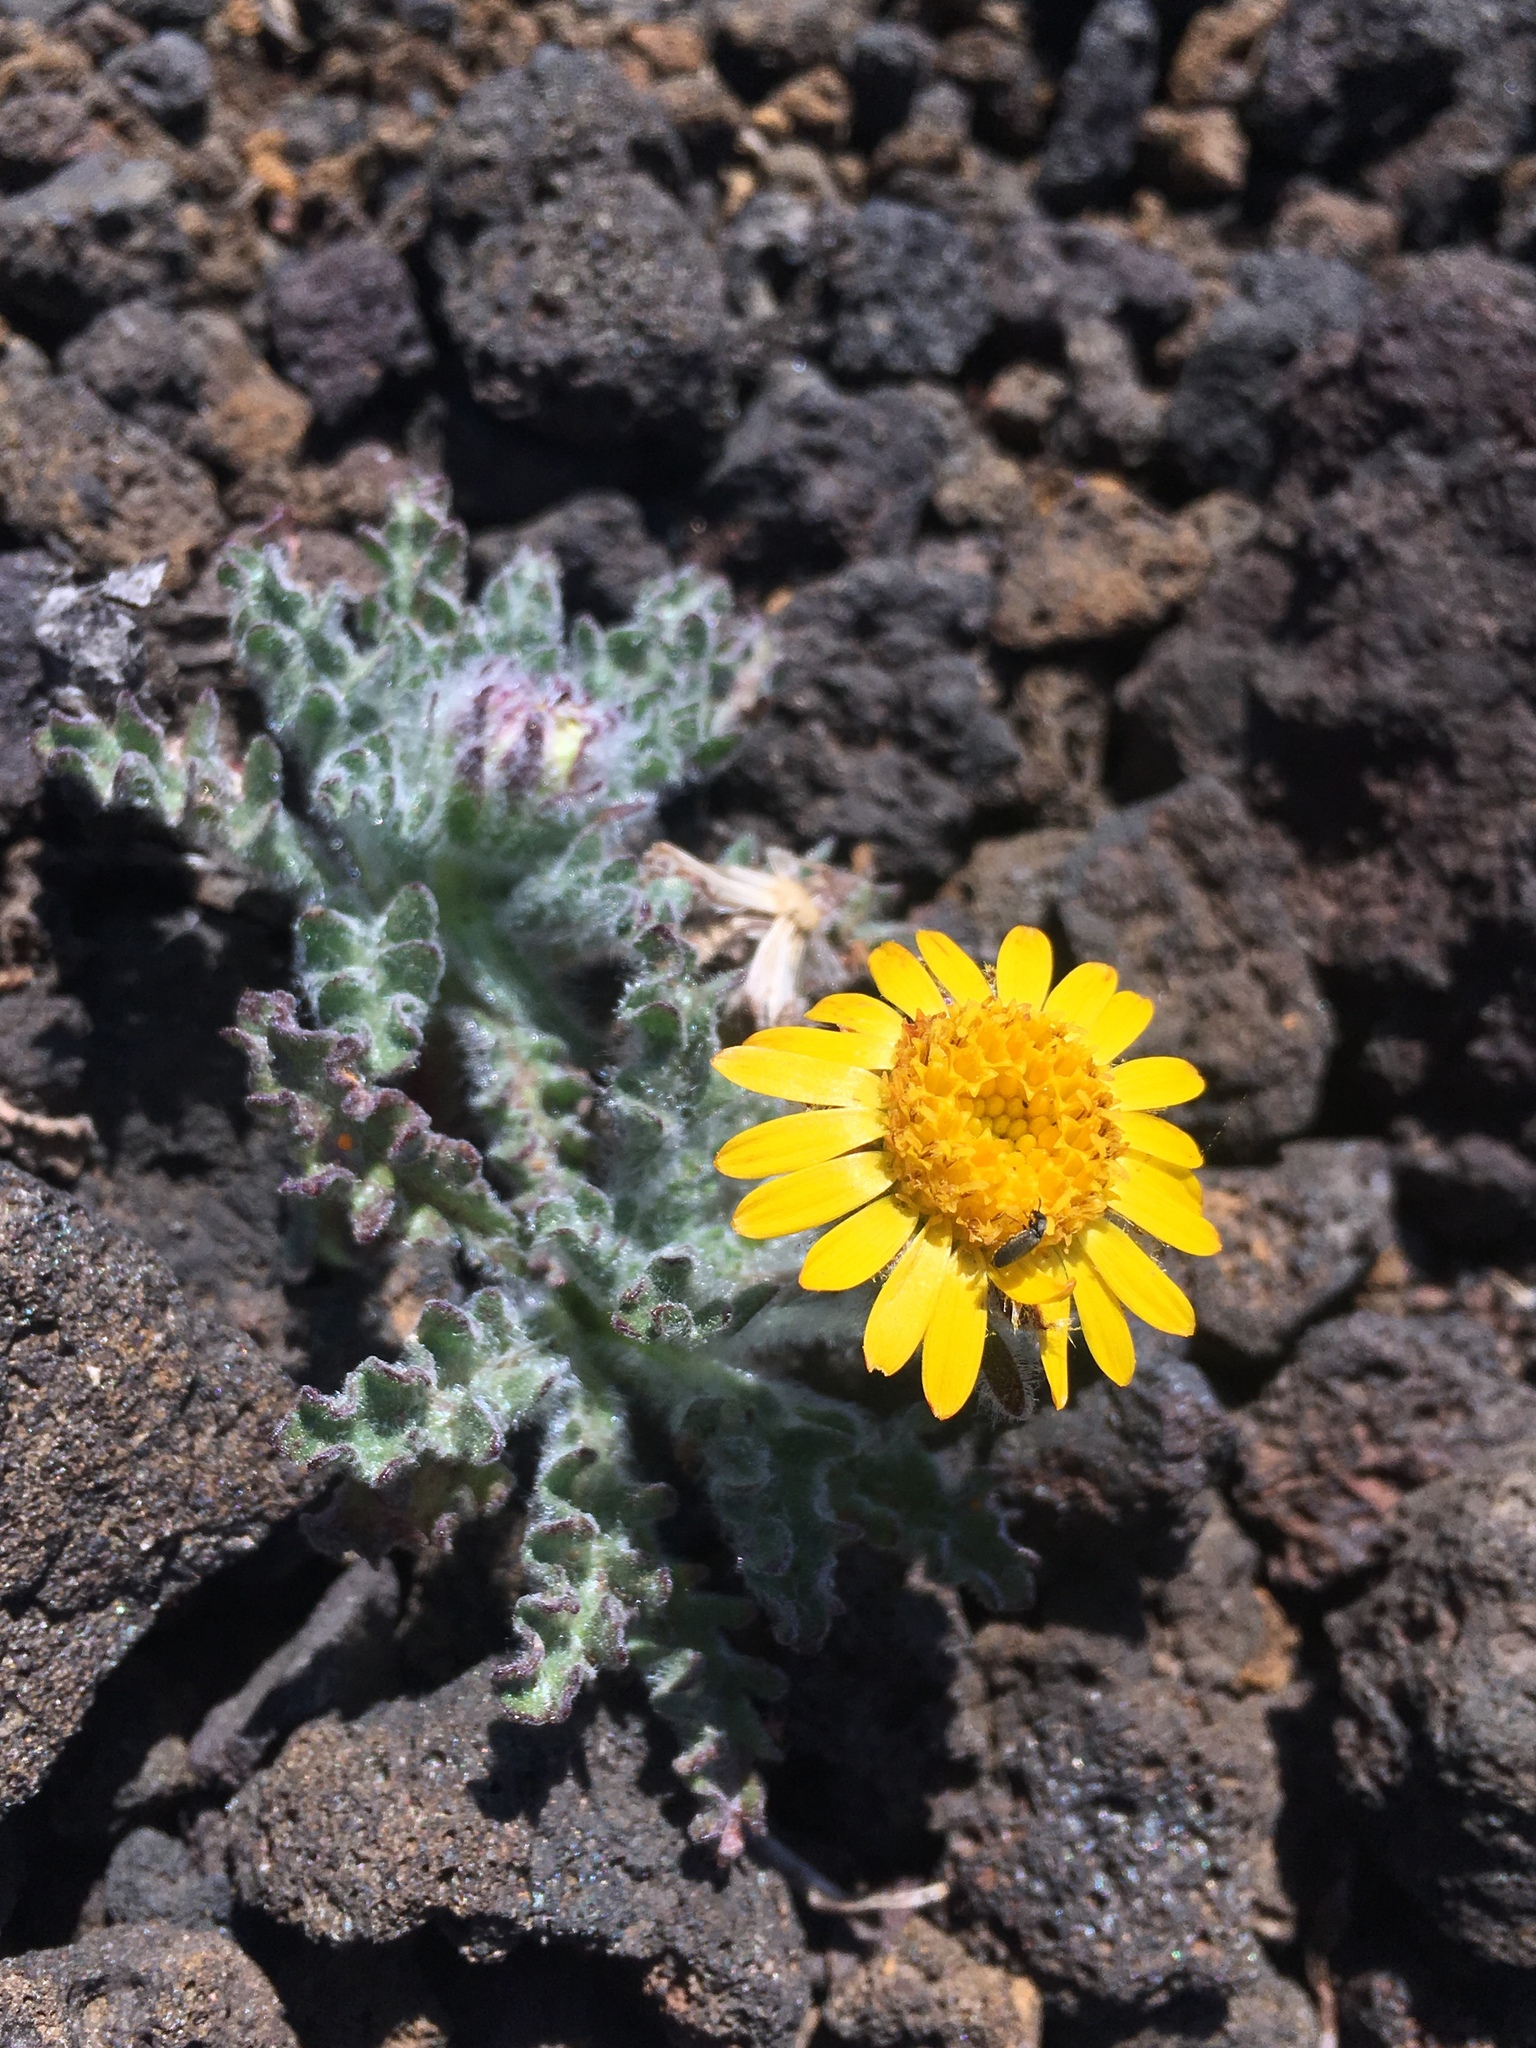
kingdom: Plantae
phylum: Tracheophyta
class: Magnoliopsida
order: Asterales
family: Asteraceae
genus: Hulsea
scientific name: Hulsea nana
